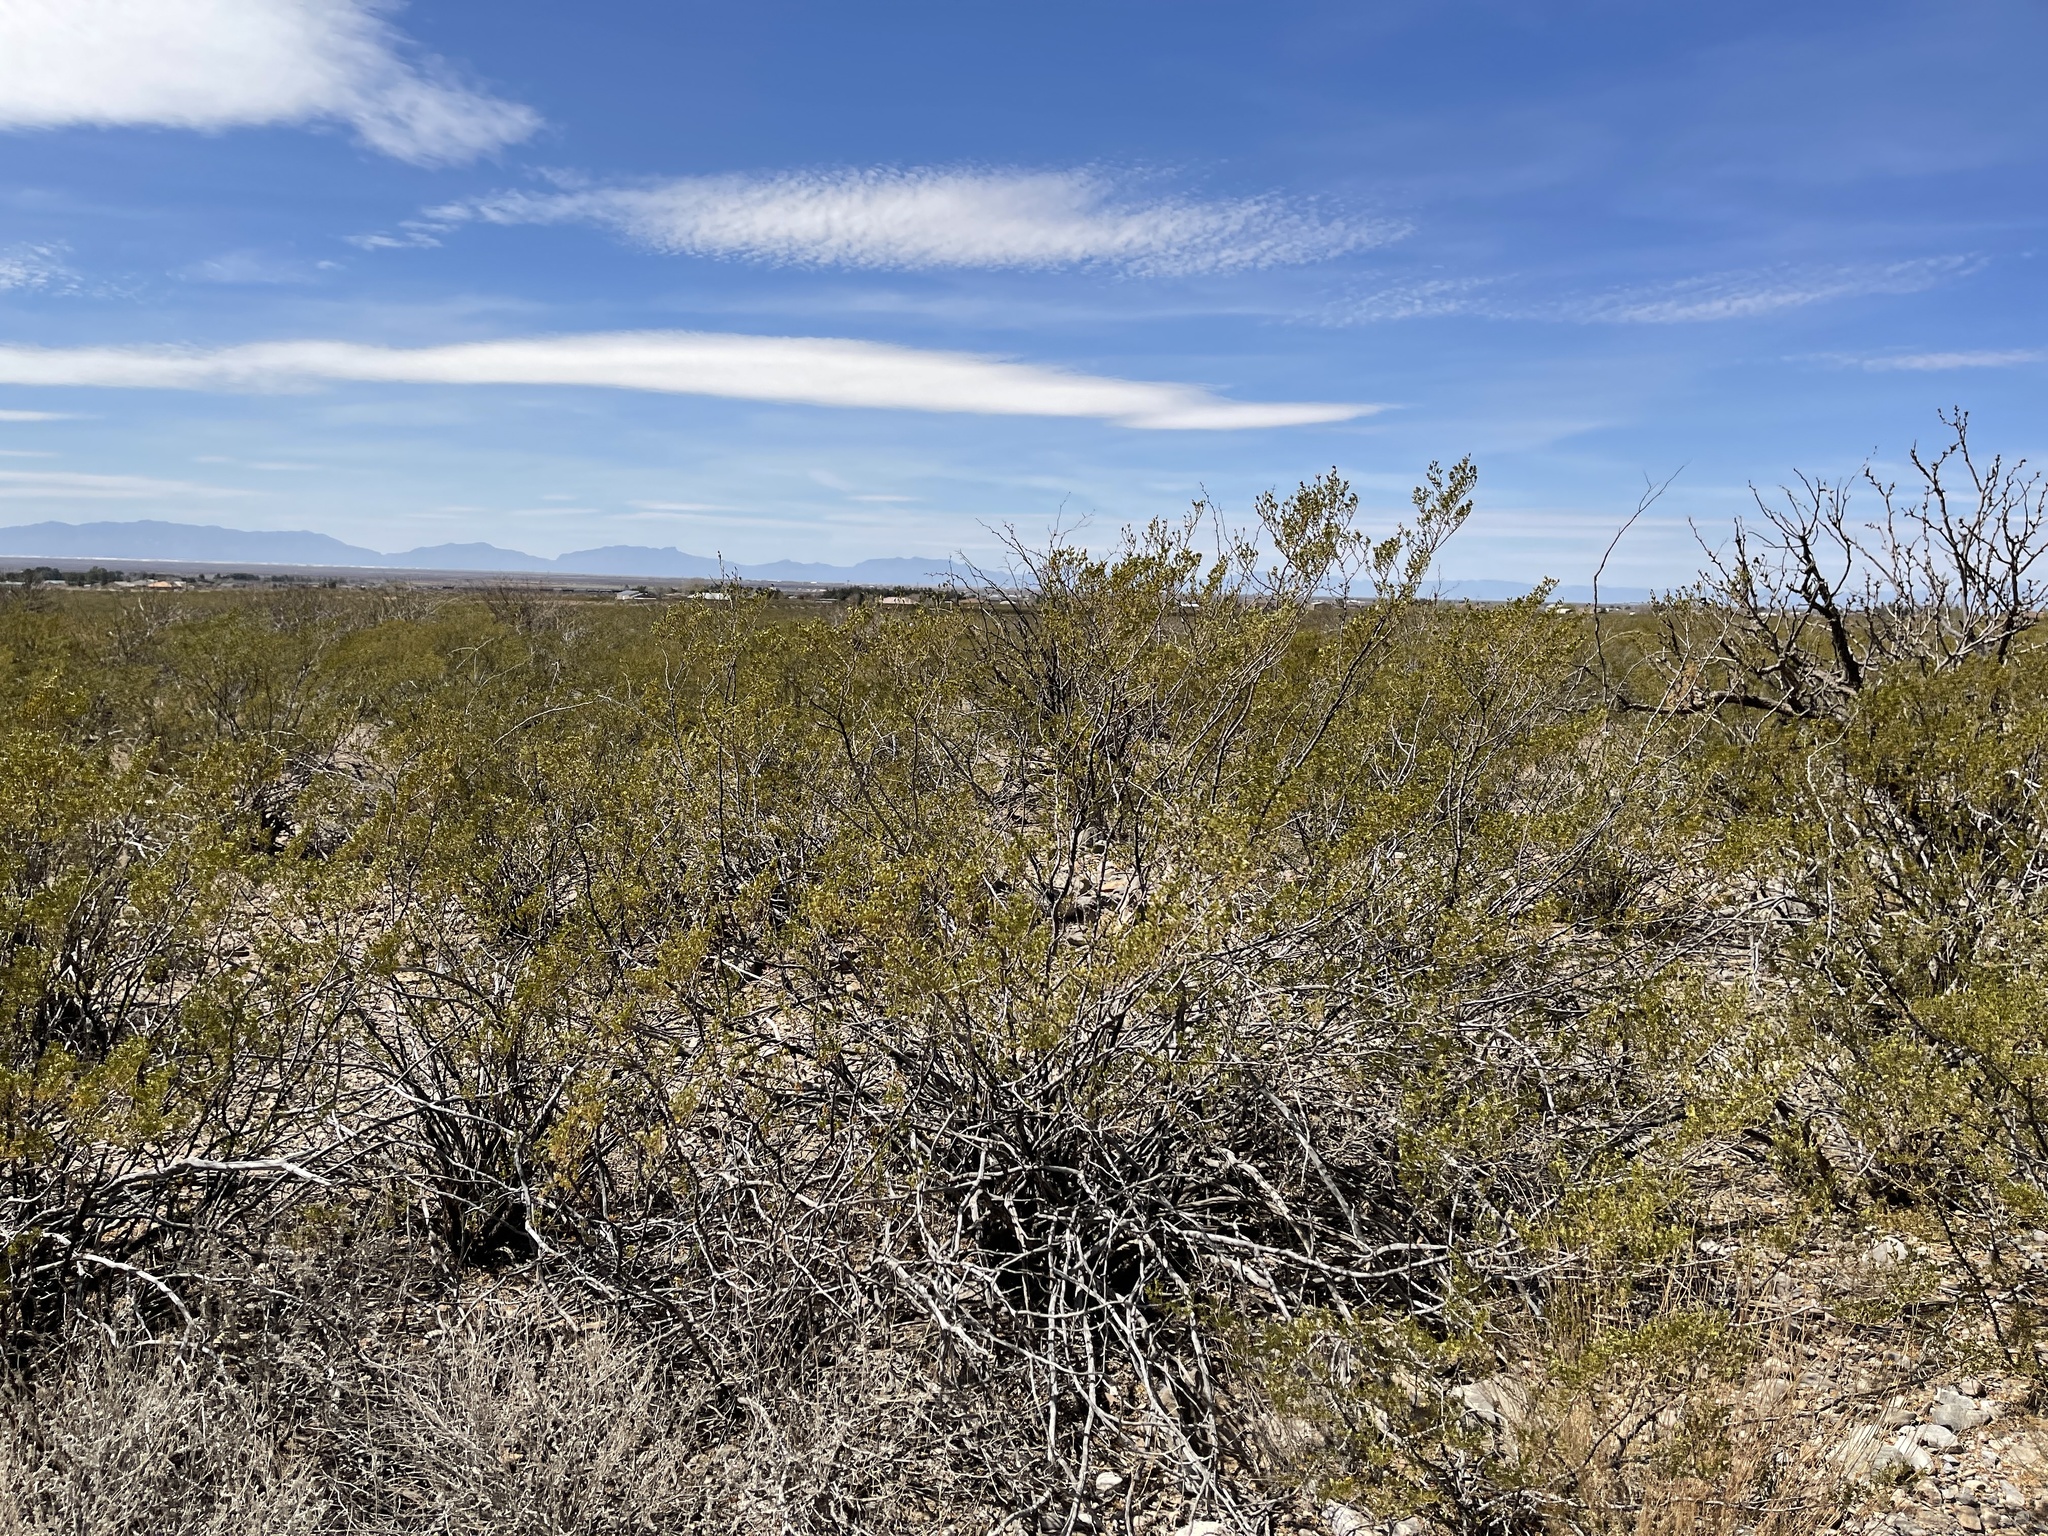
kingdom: Plantae
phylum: Tracheophyta
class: Magnoliopsida
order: Zygophyllales
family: Zygophyllaceae
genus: Larrea
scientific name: Larrea tridentata
